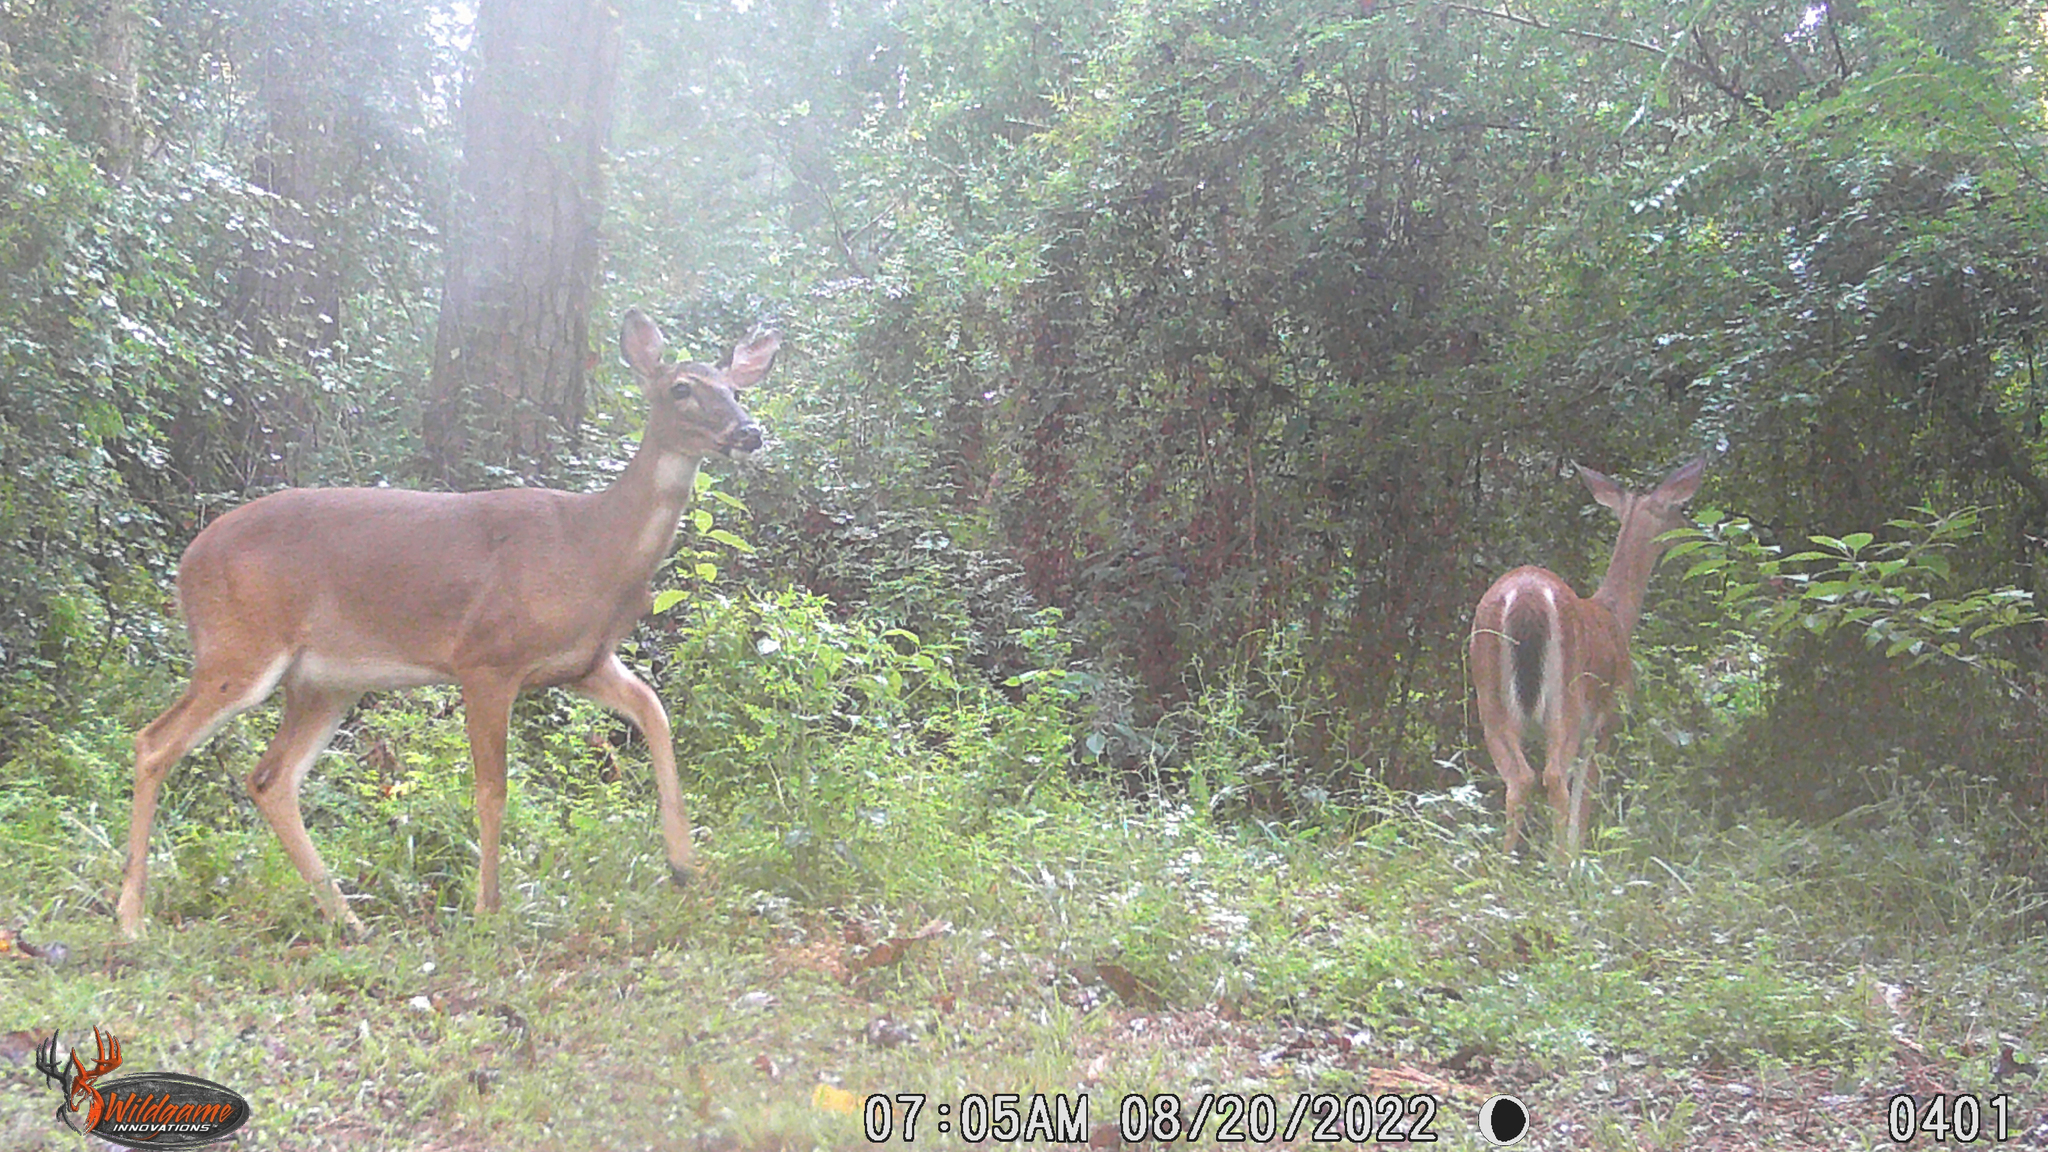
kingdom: Animalia
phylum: Chordata
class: Mammalia
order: Artiodactyla
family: Cervidae
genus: Odocoileus
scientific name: Odocoileus virginianus
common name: White-tailed deer
